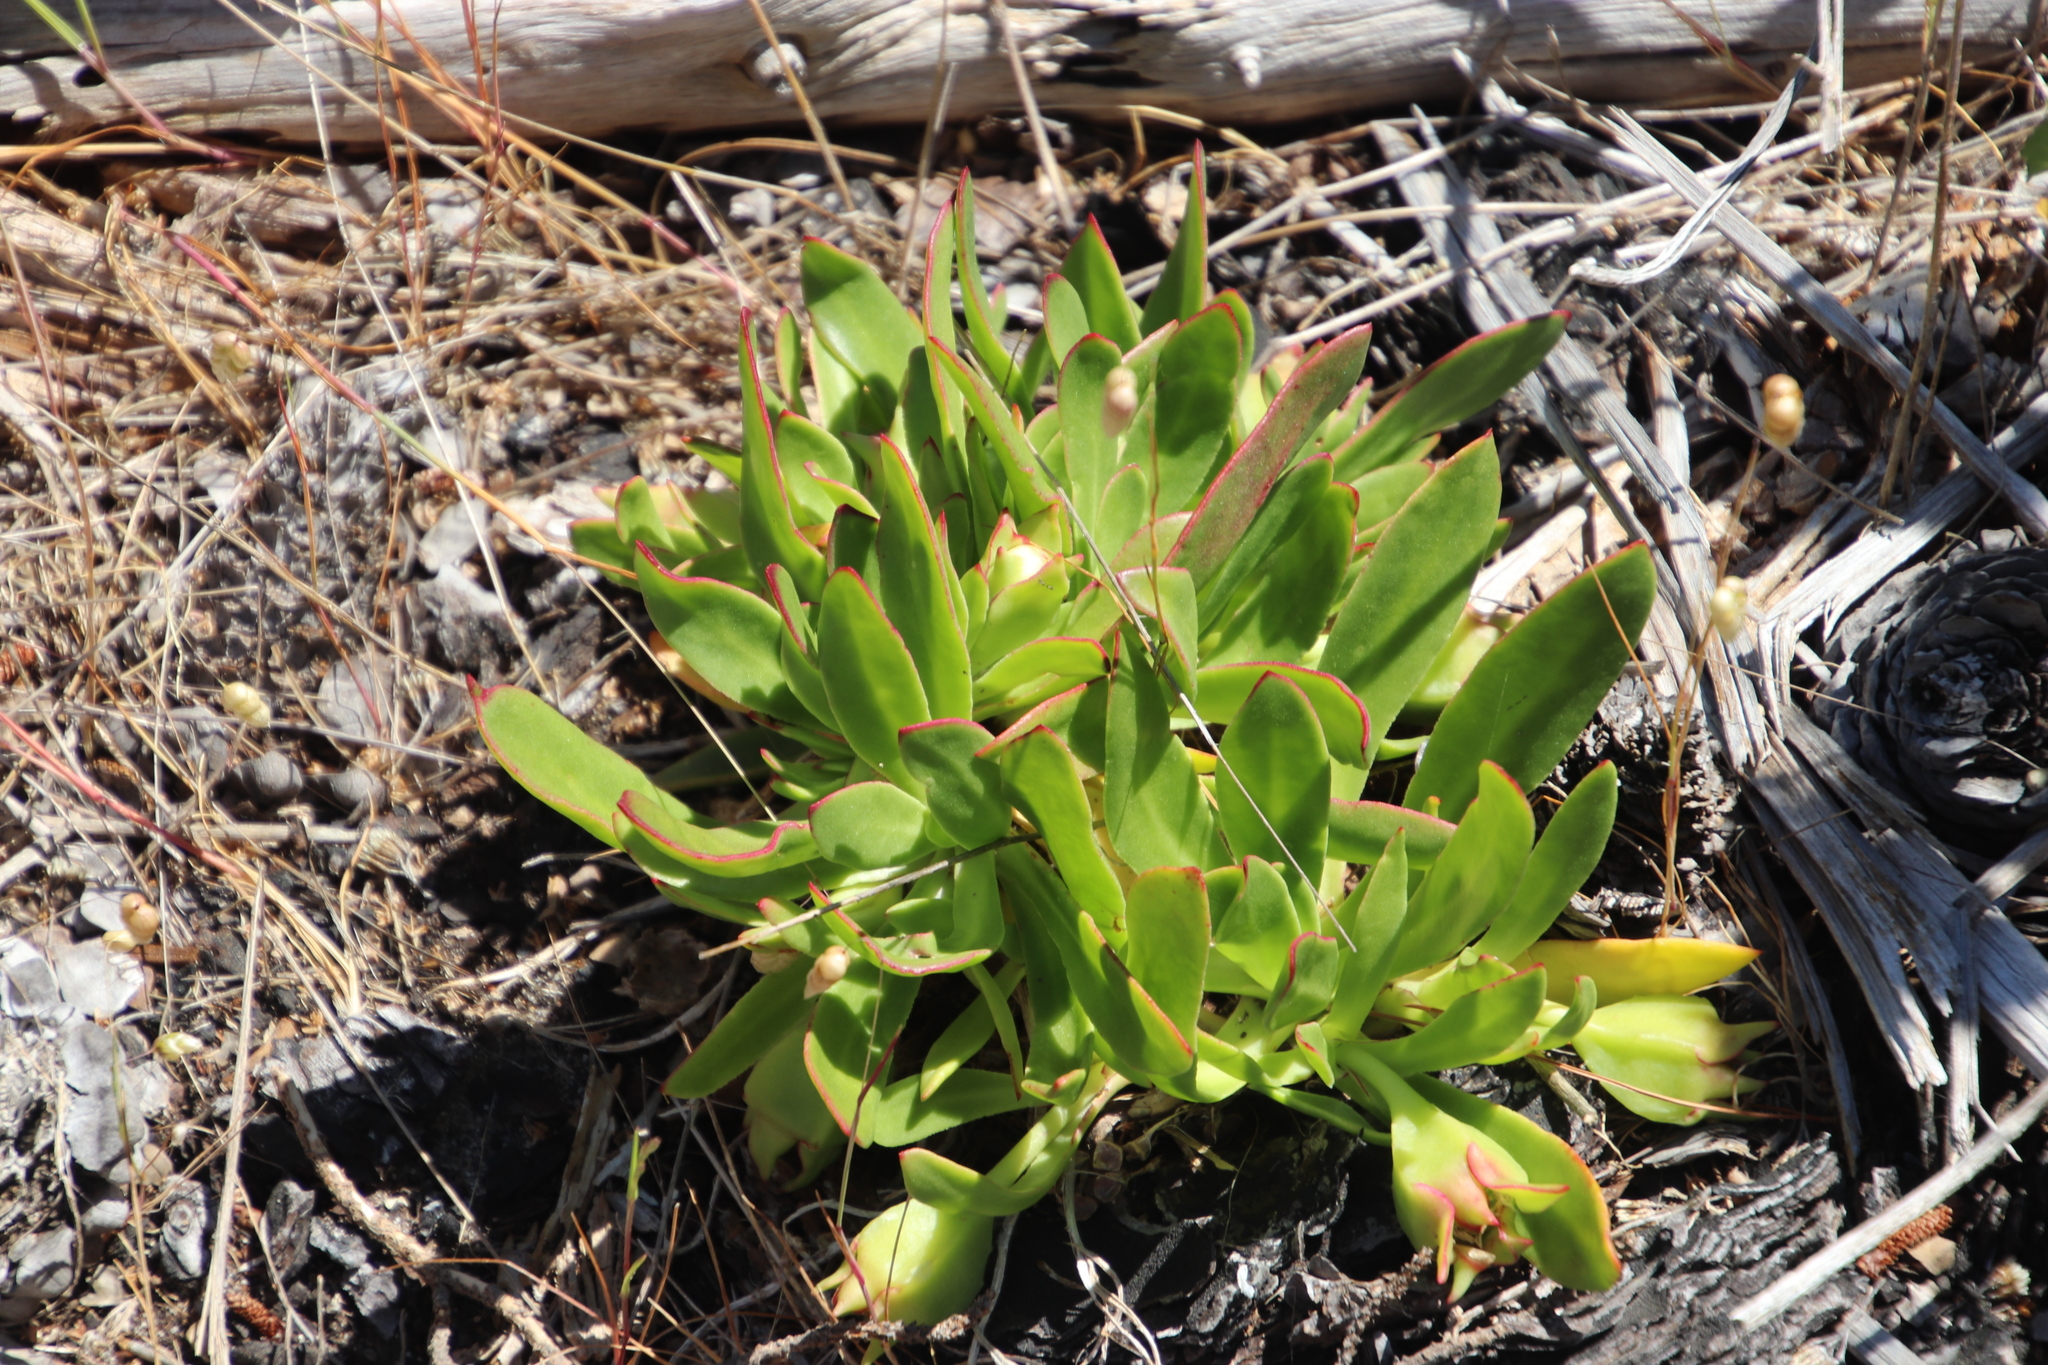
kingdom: Plantae
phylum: Tracheophyta
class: Magnoliopsida
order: Caryophyllales
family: Aizoaceae
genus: Skiatophytum
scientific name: Skiatophytum tripolium
